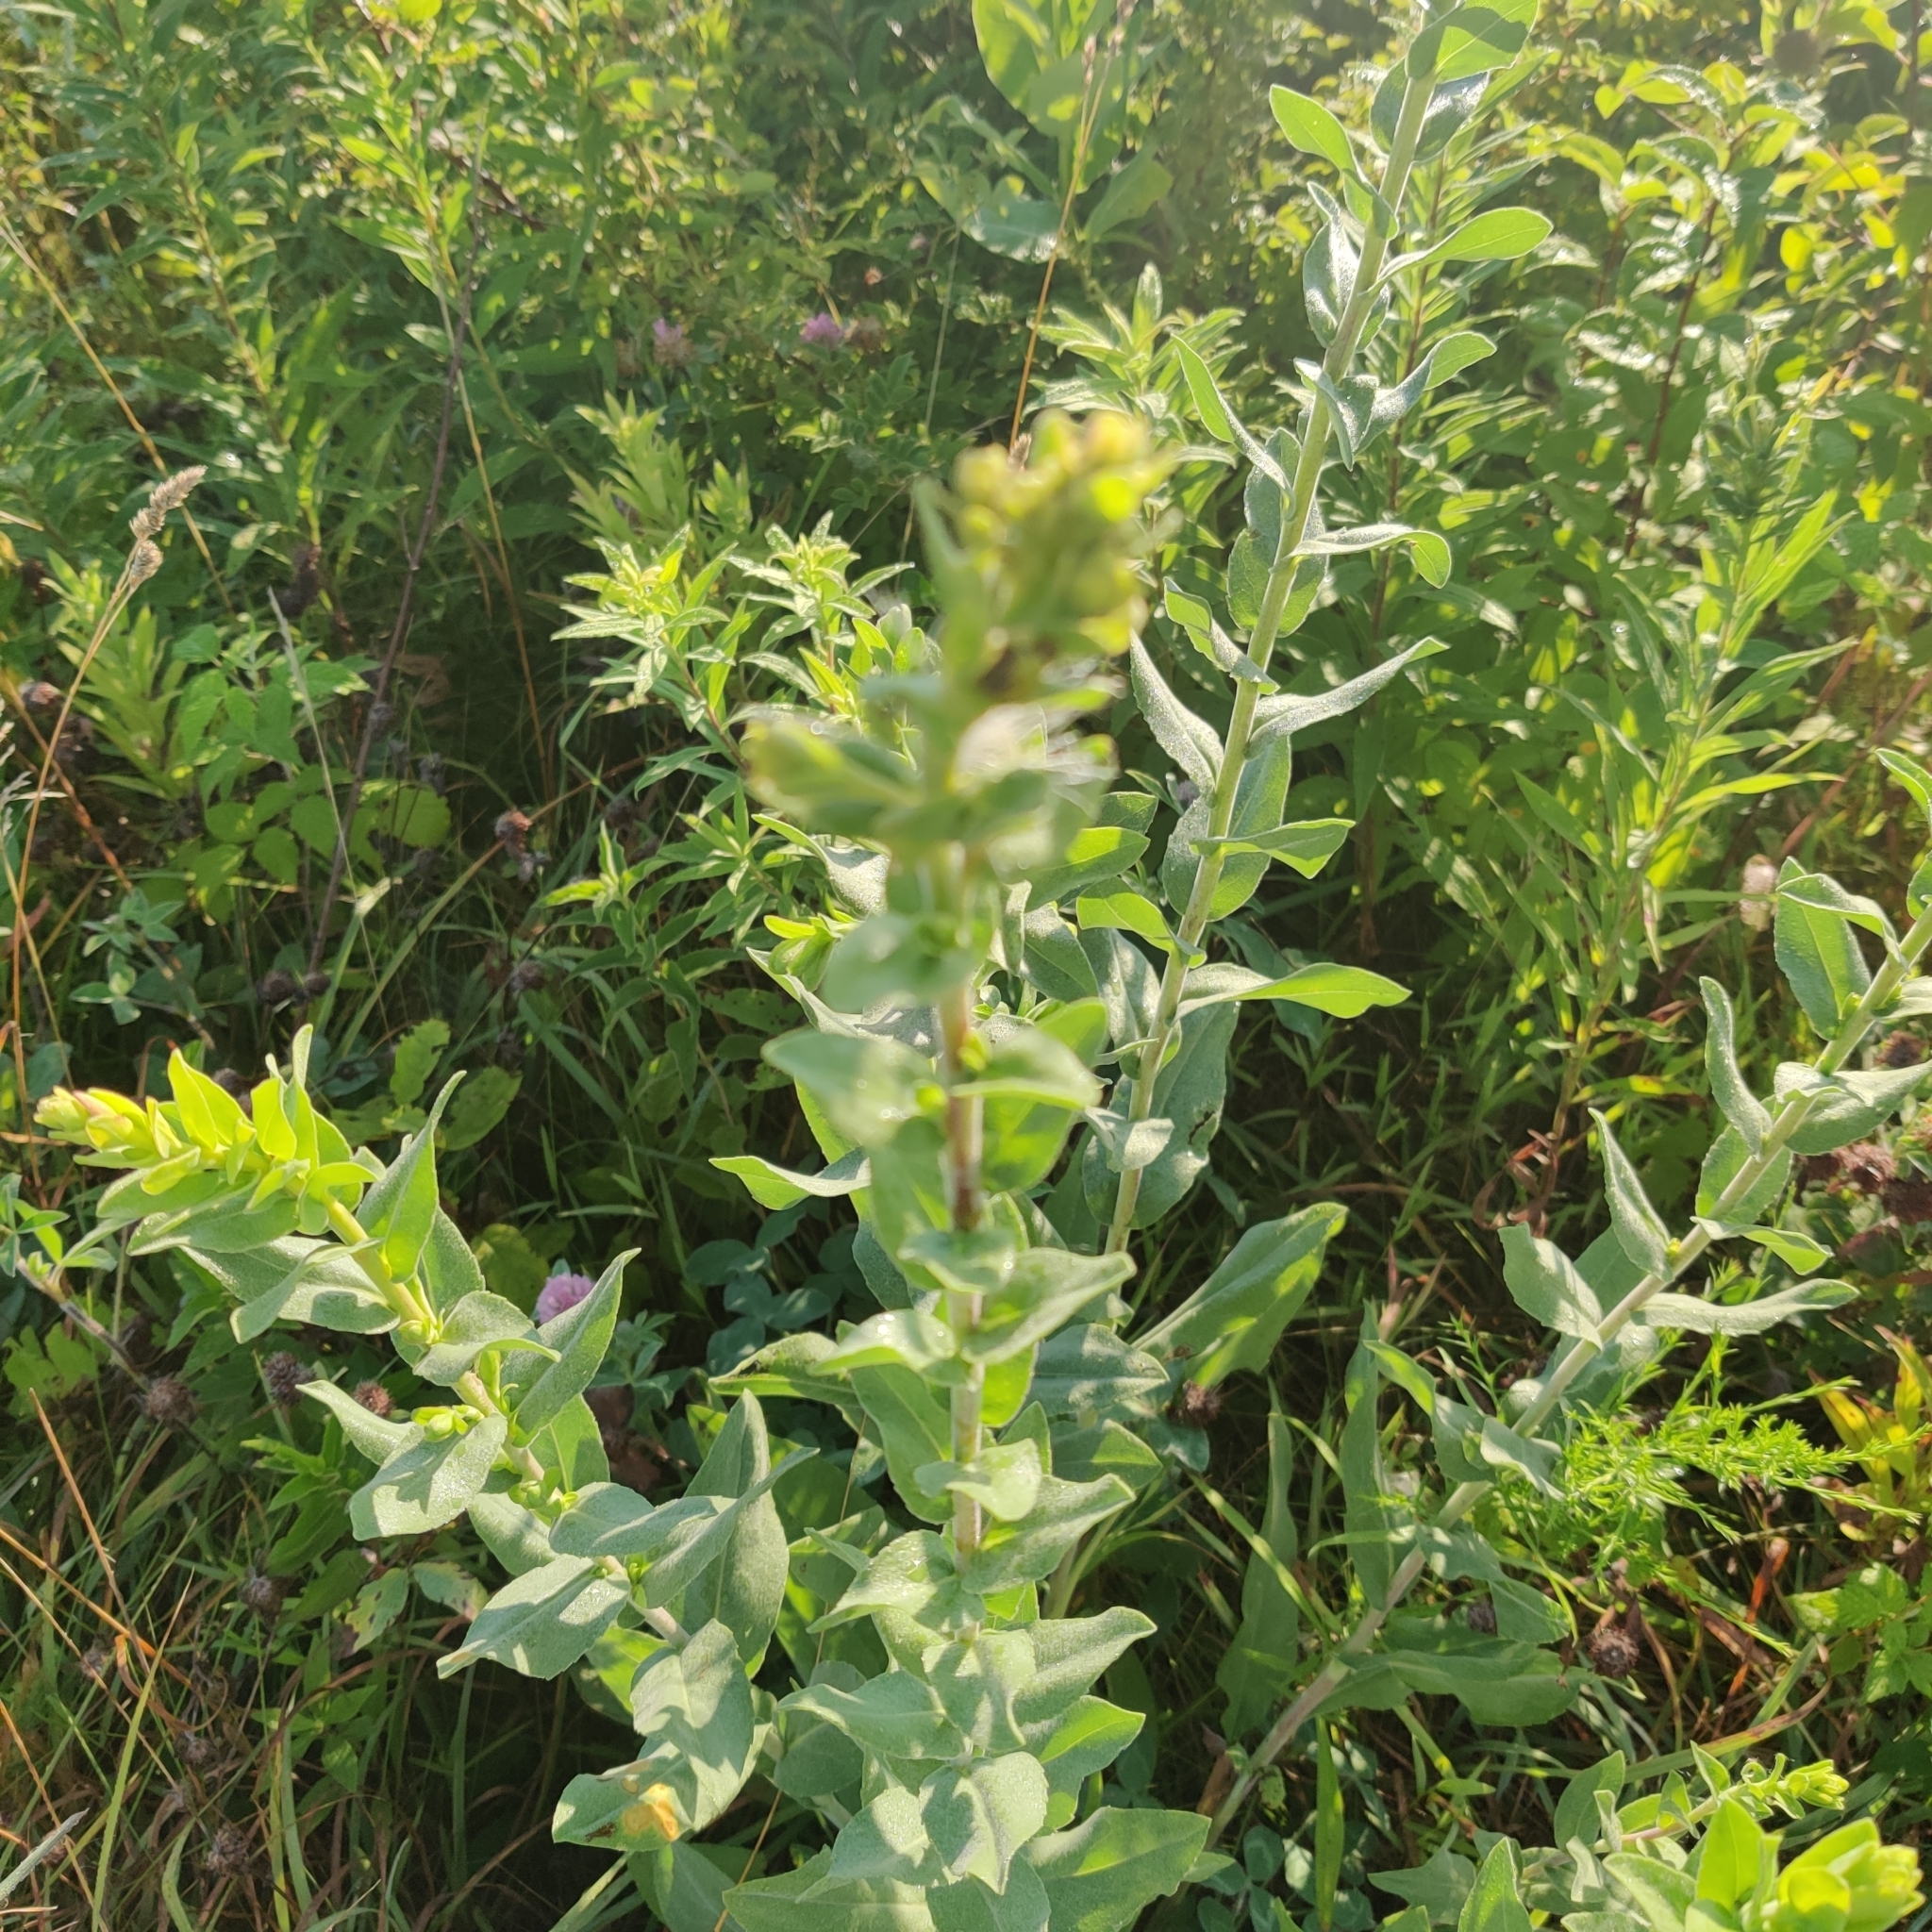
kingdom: Plantae
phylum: Tracheophyta
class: Magnoliopsida
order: Asterales
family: Asteraceae
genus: Solidago
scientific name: Solidago rigida
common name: Rigid goldenrod
